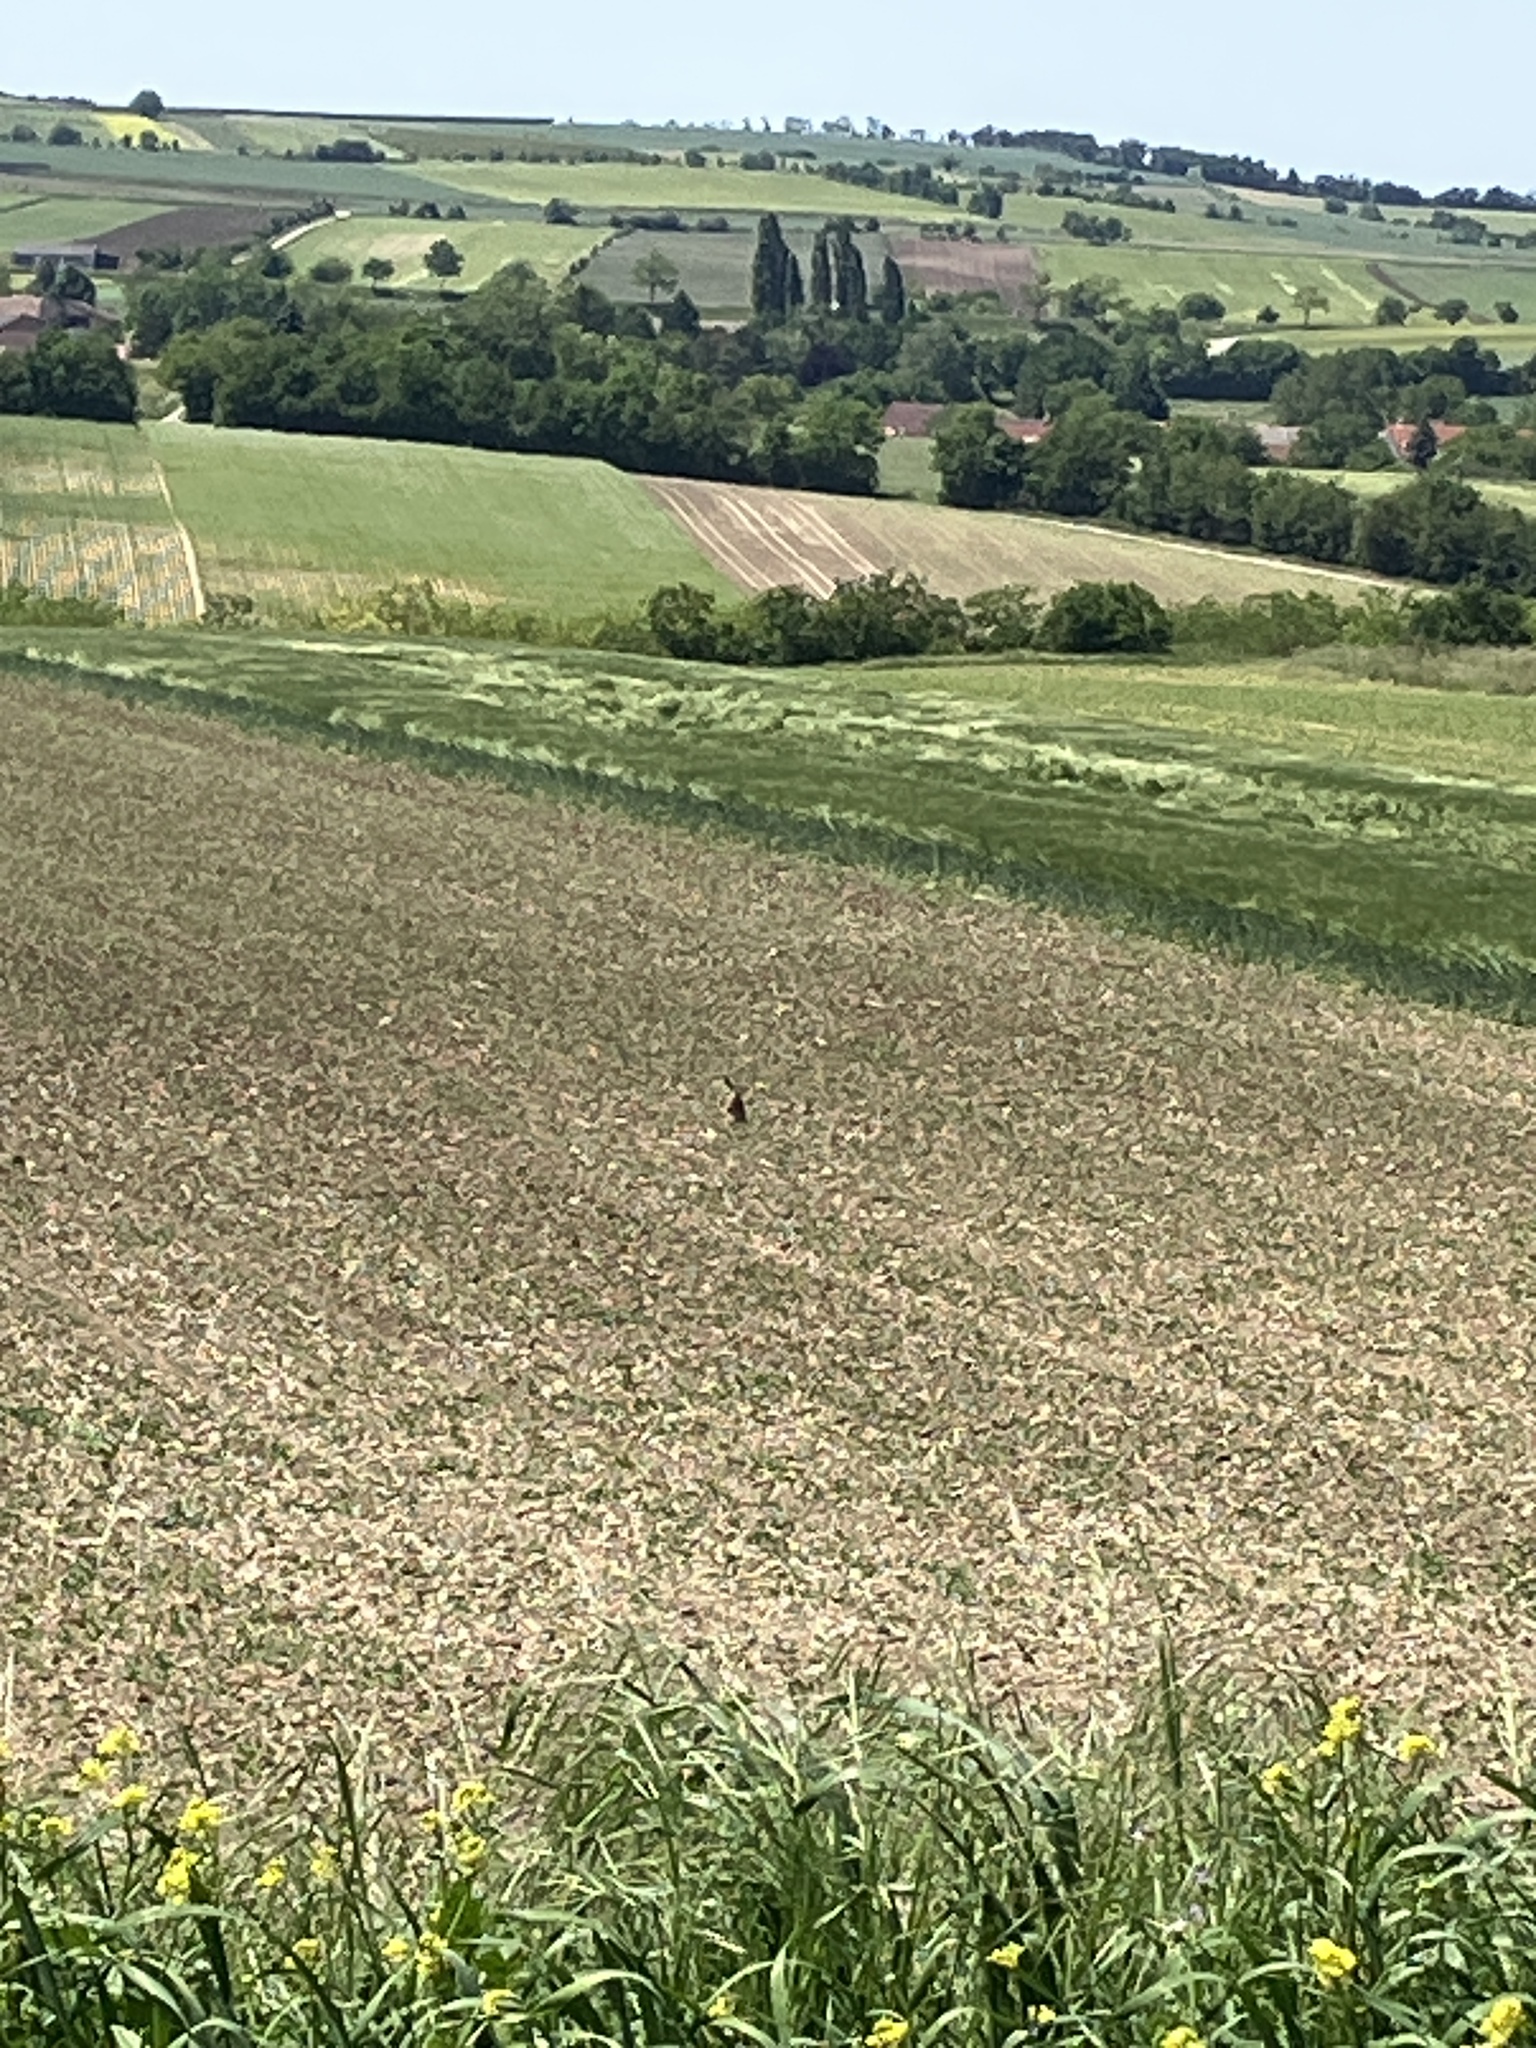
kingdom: Animalia
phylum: Chordata
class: Mammalia
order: Lagomorpha
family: Leporidae
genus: Lepus
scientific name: Lepus europaeus
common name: European hare
